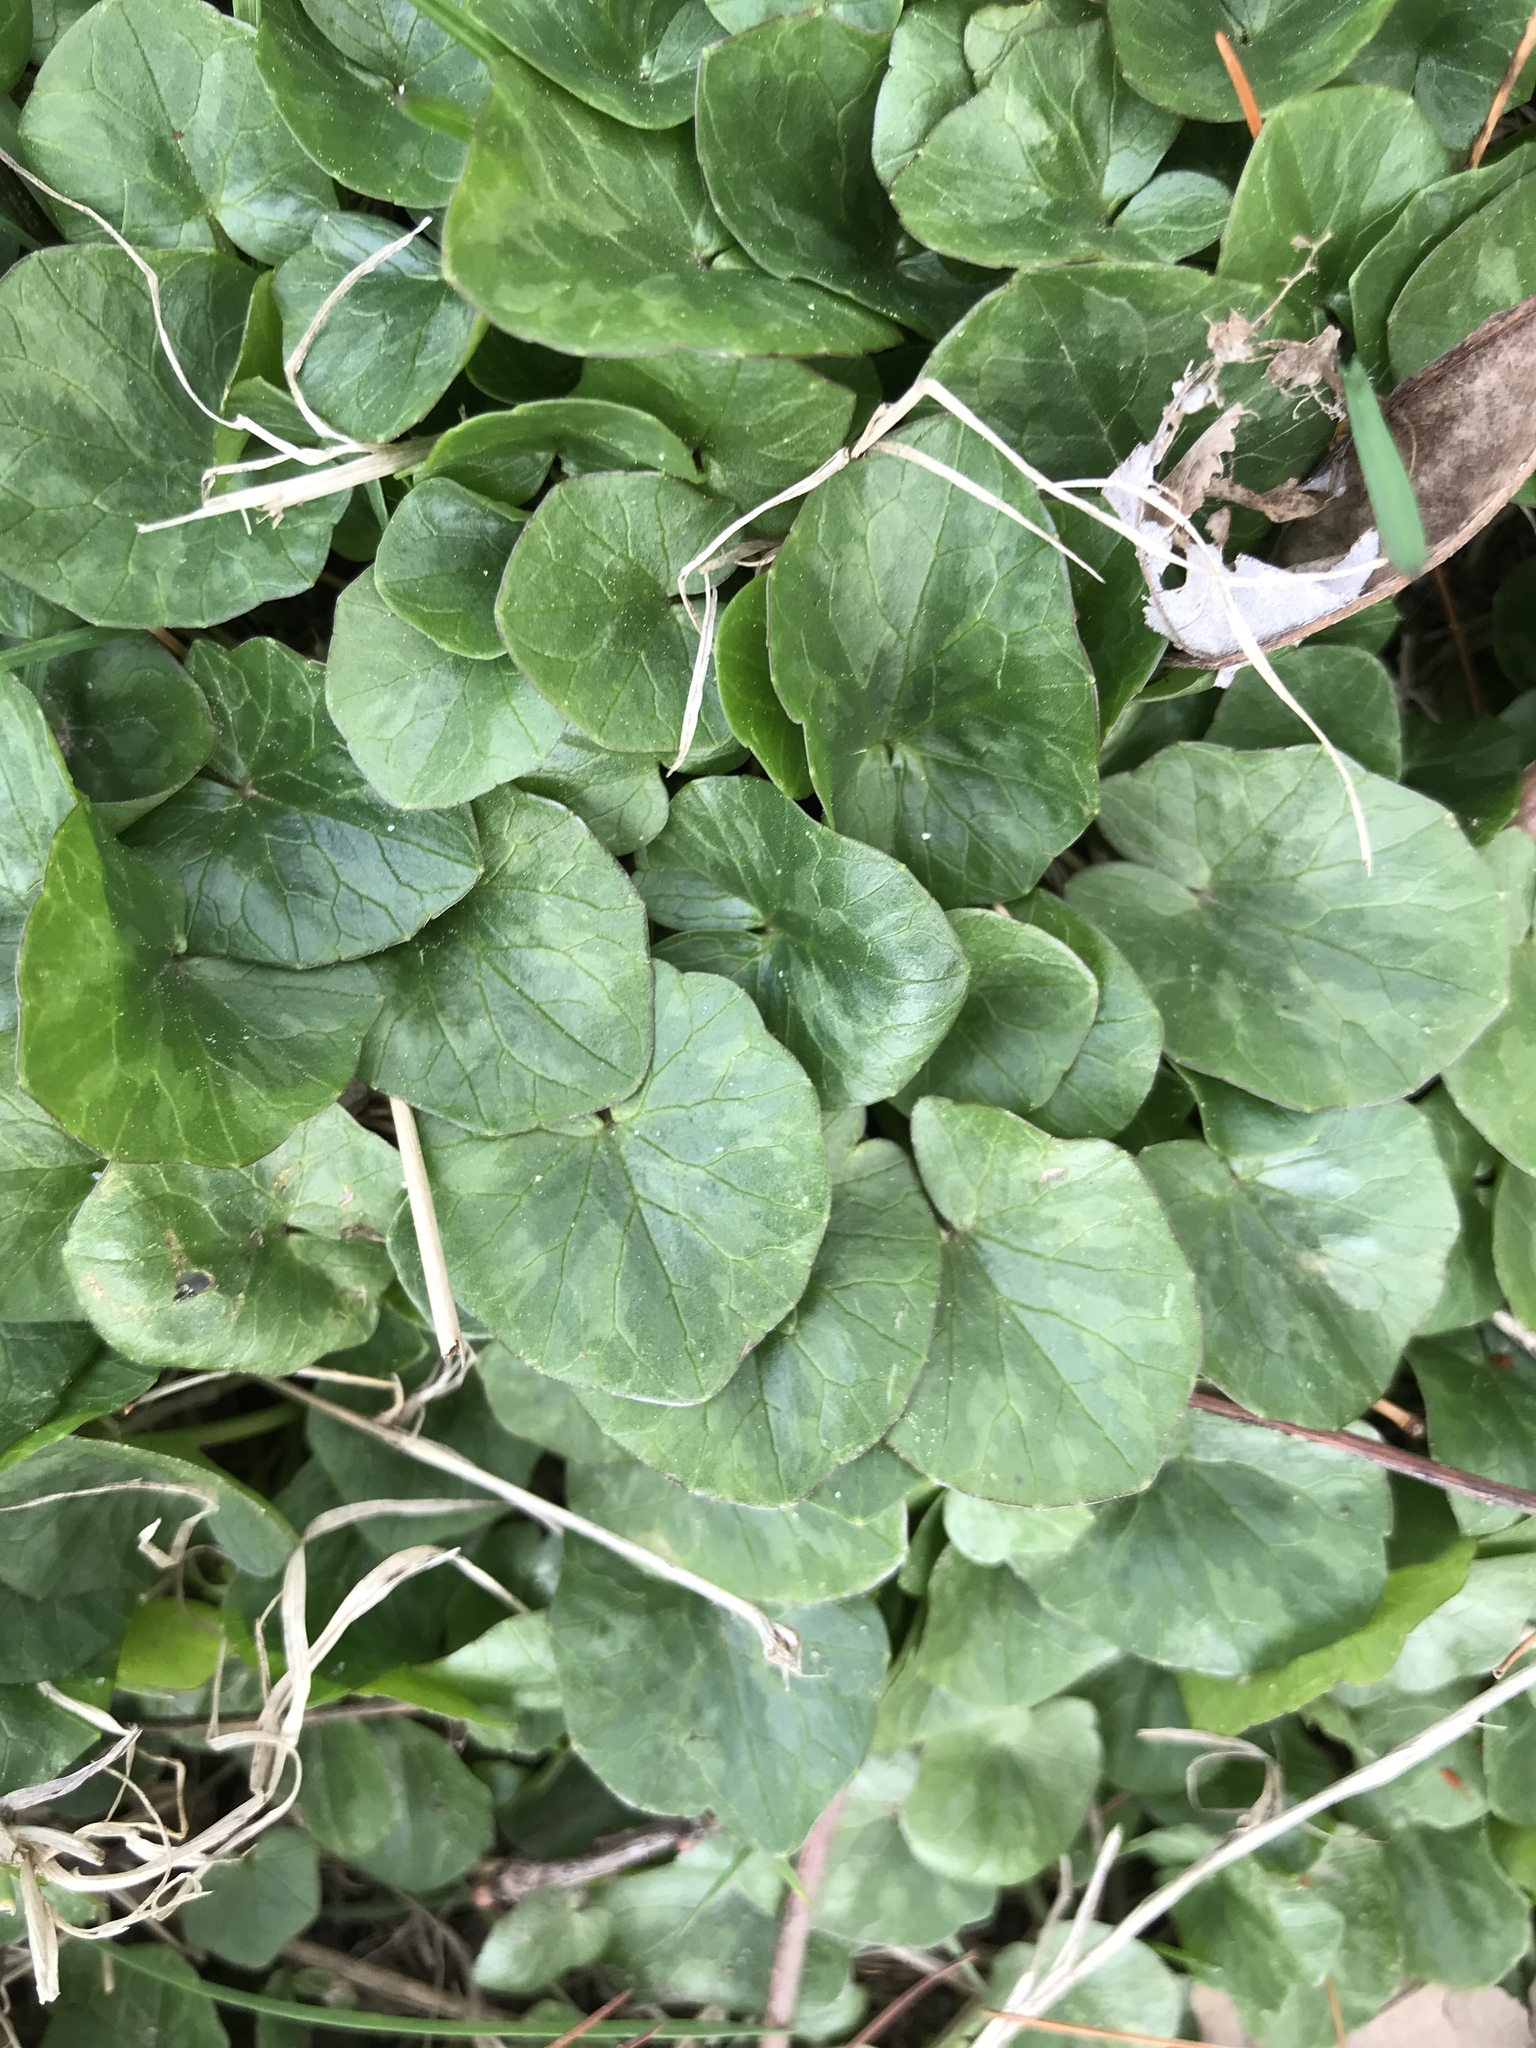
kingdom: Plantae
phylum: Tracheophyta
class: Magnoliopsida
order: Ranunculales
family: Ranunculaceae
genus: Ficaria
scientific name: Ficaria verna
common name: Lesser celandine
